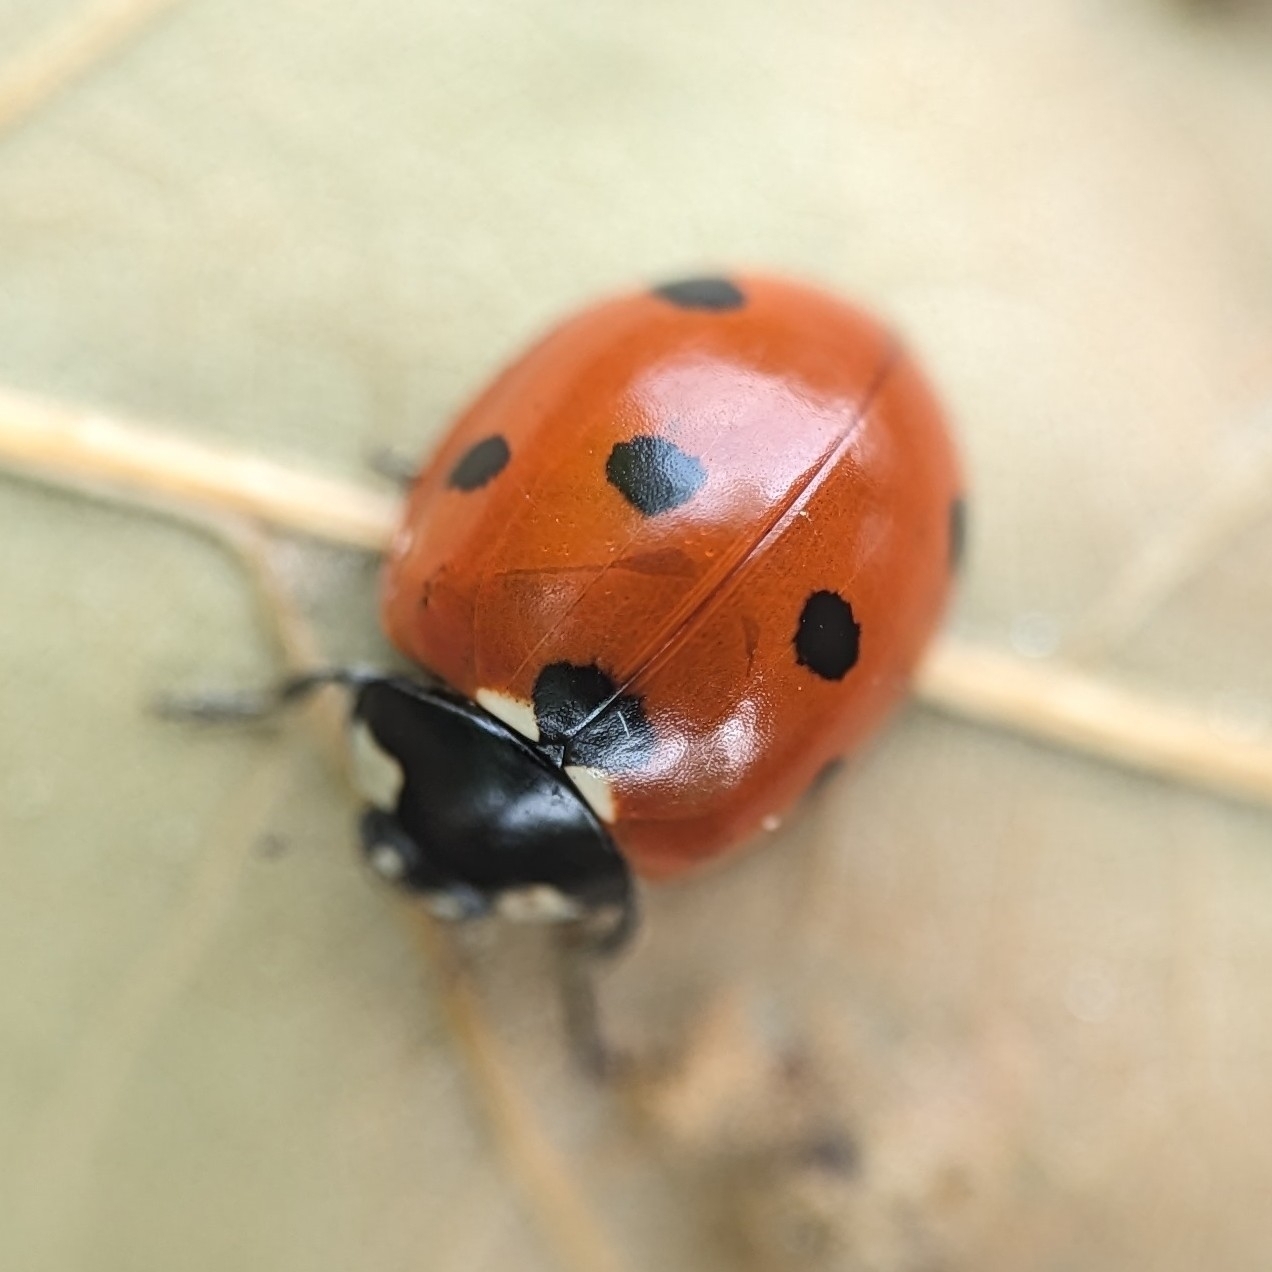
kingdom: Animalia
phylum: Arthropoda
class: Insecta
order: Coleoptera
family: Coccinellidae
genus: Coccinella
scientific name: Coccinella septempunctata
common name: Sevenspotted lady beetle
